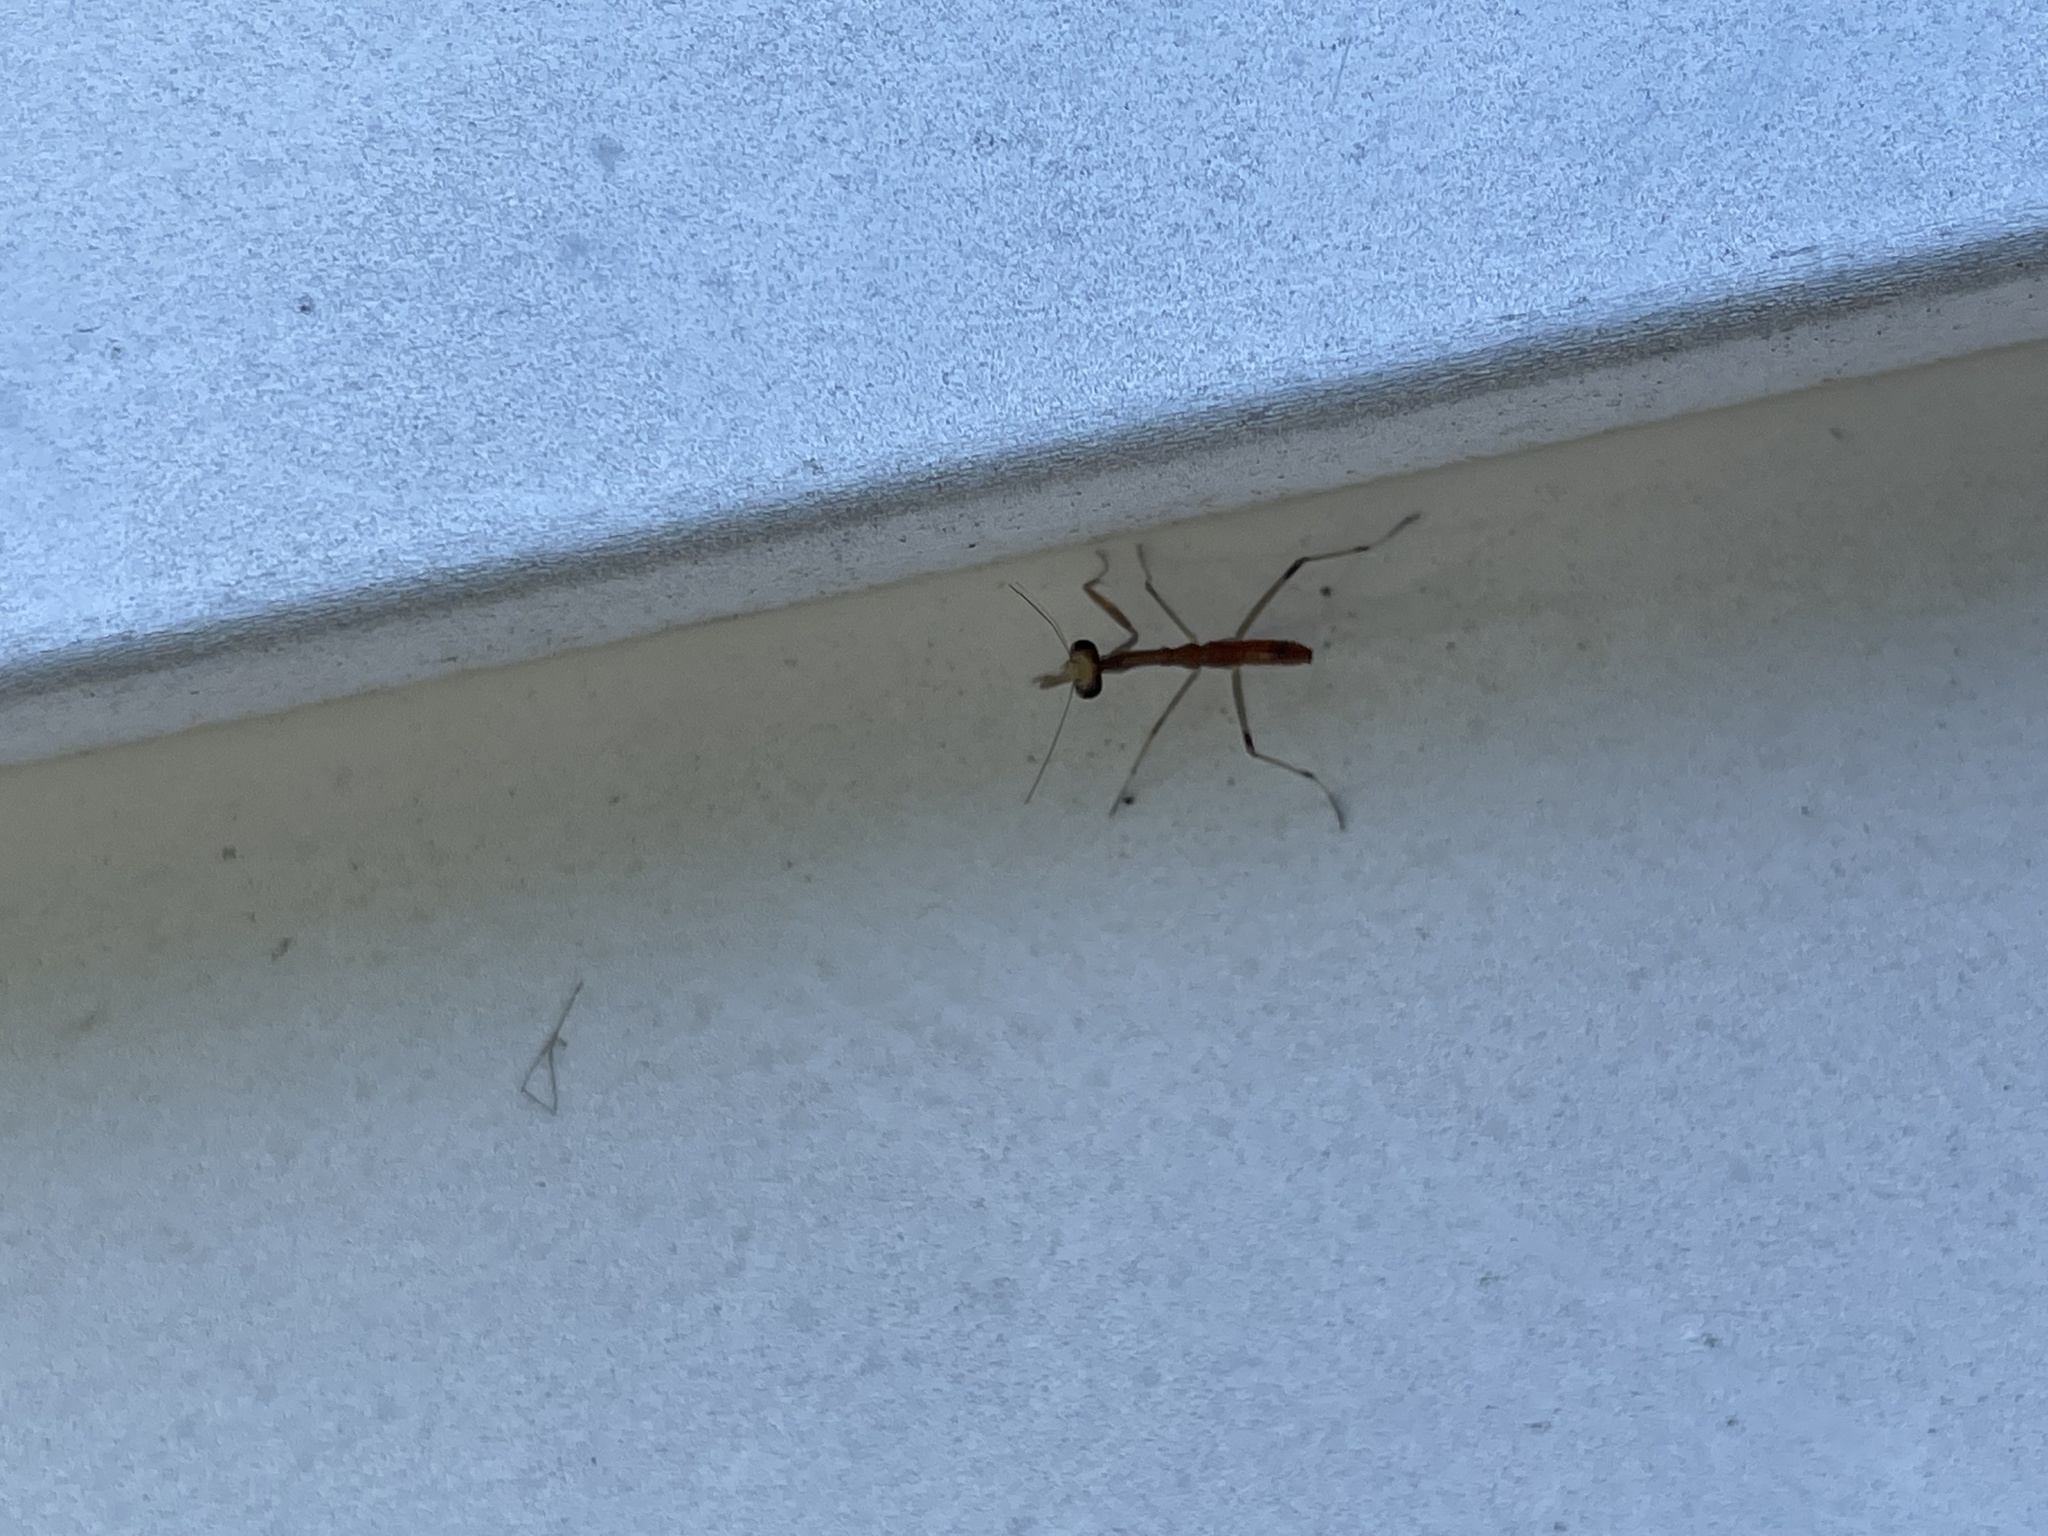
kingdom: Animalia
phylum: Arthropoda
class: Insecta
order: Mantodea
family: Mantidae
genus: Stagmomantis
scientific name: Stagmomantis carolina
